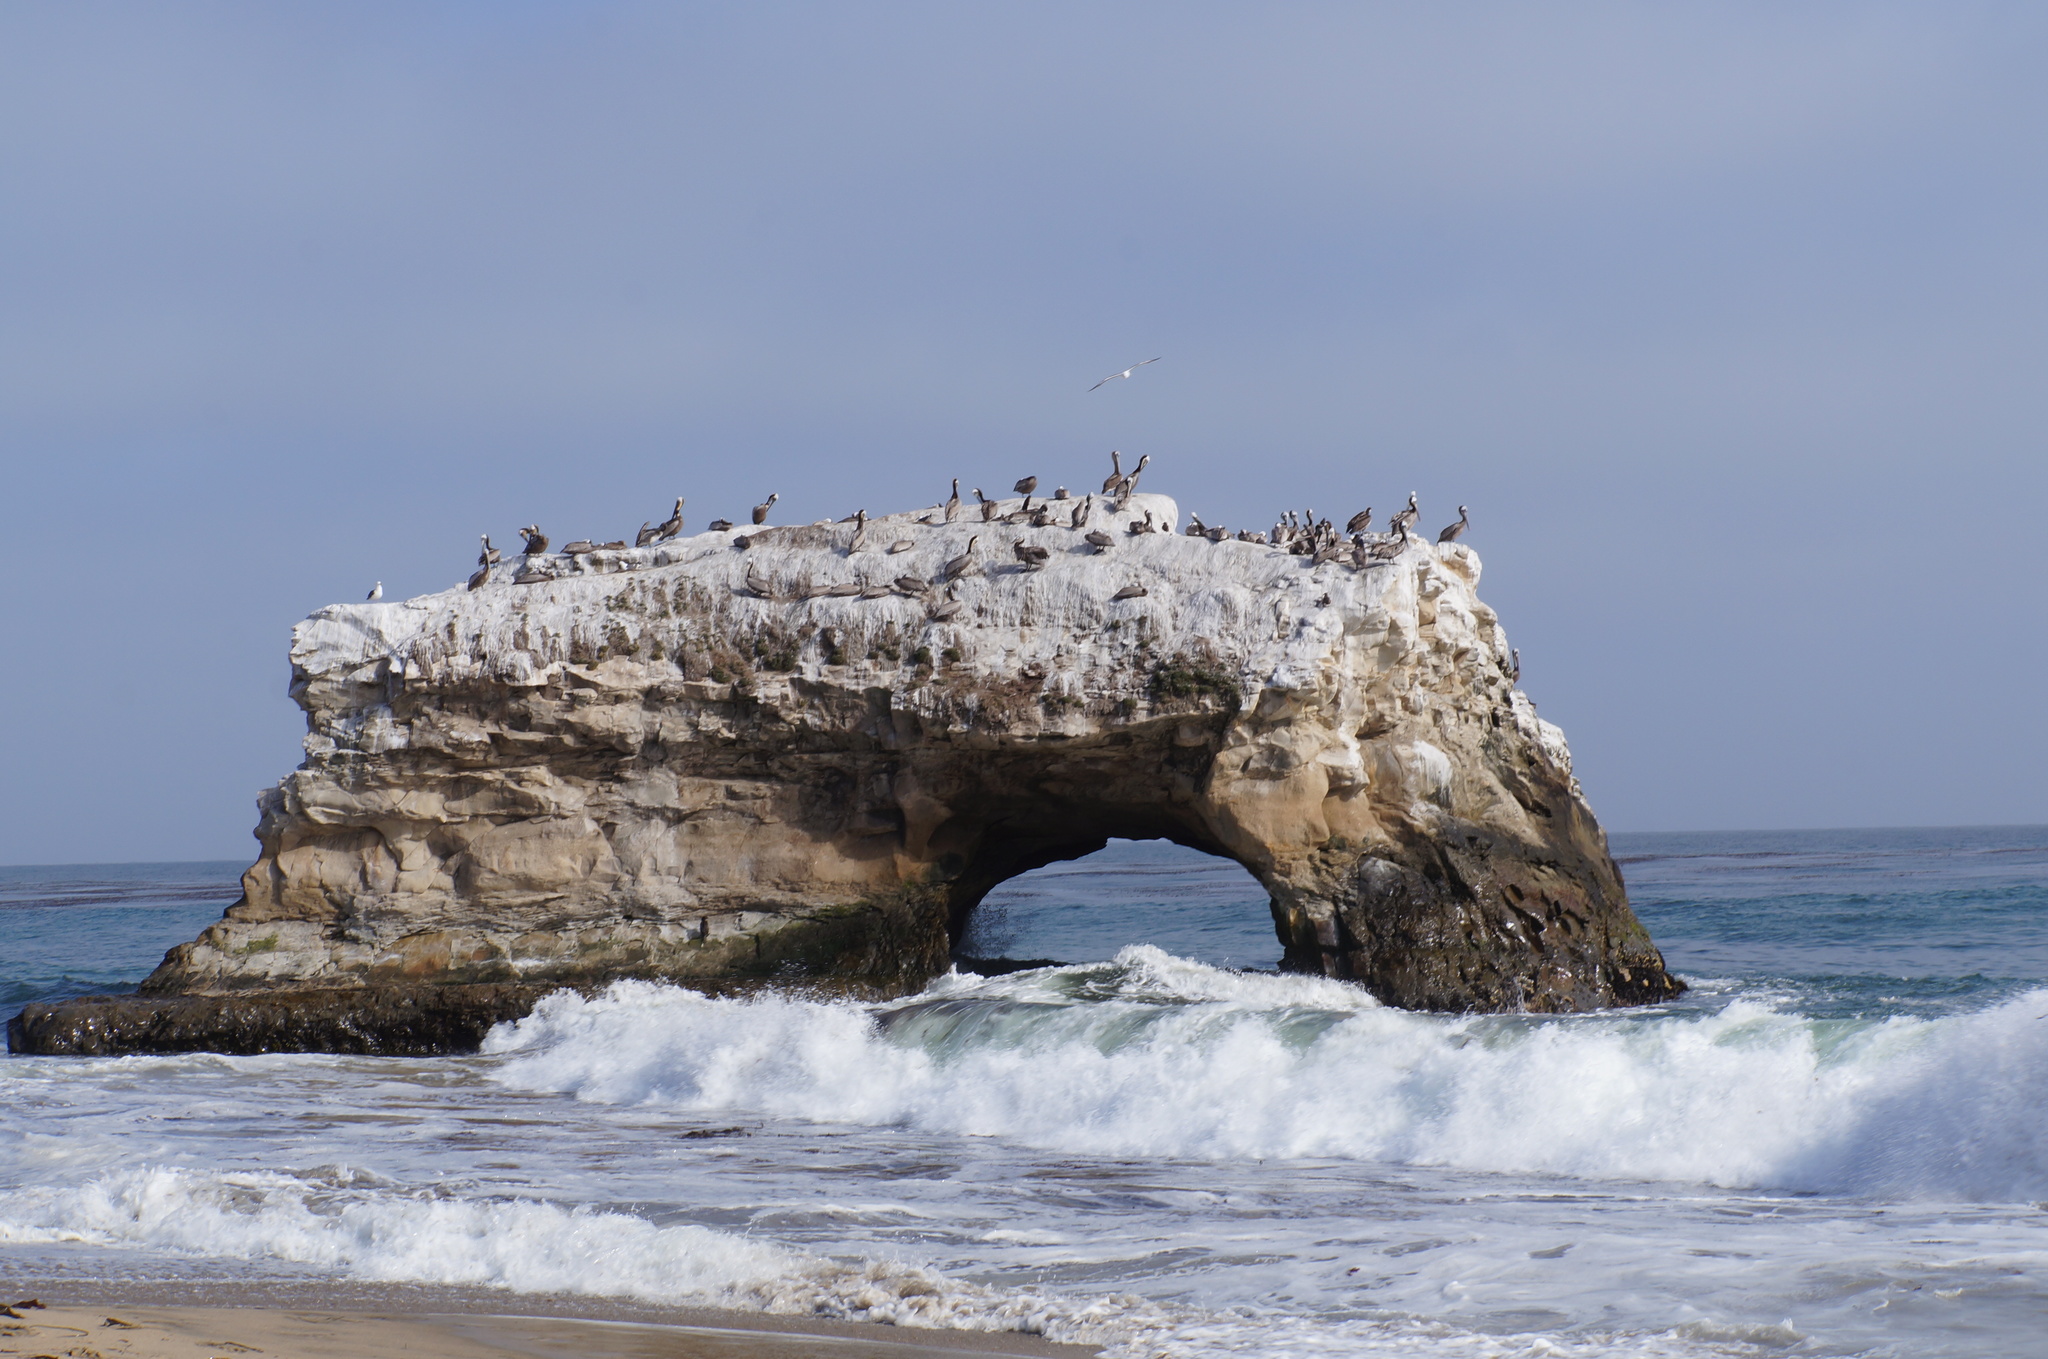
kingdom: Animalia
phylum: Chordata
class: Aves
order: Pelecaniformes
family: Pelecanidae
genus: Pelecanus
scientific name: Pelecanus occidentalis
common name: Brown pelican
